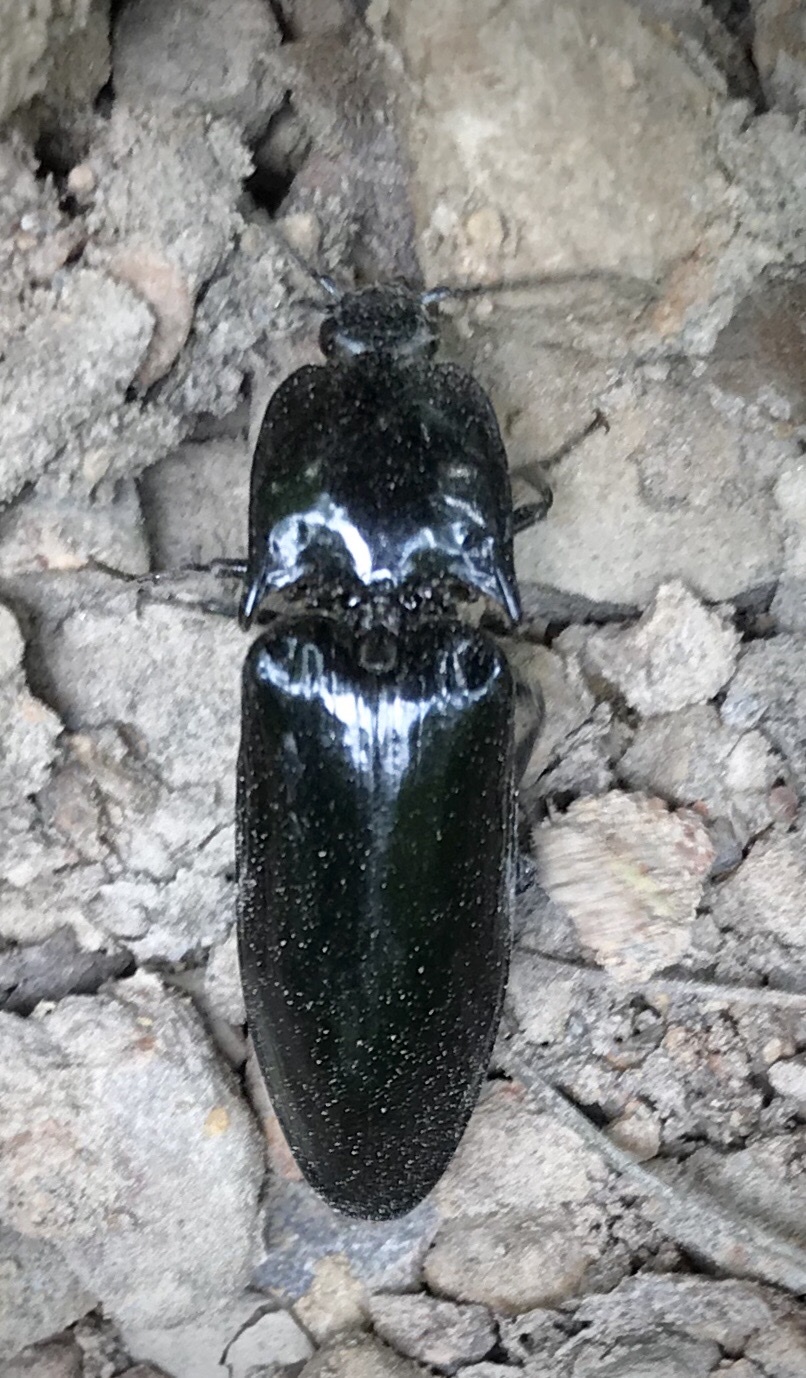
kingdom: Animalia
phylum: Arthropoda
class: Insecta
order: Coleoptera
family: Elateridae
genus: Melanactes
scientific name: Melanactes piceus
